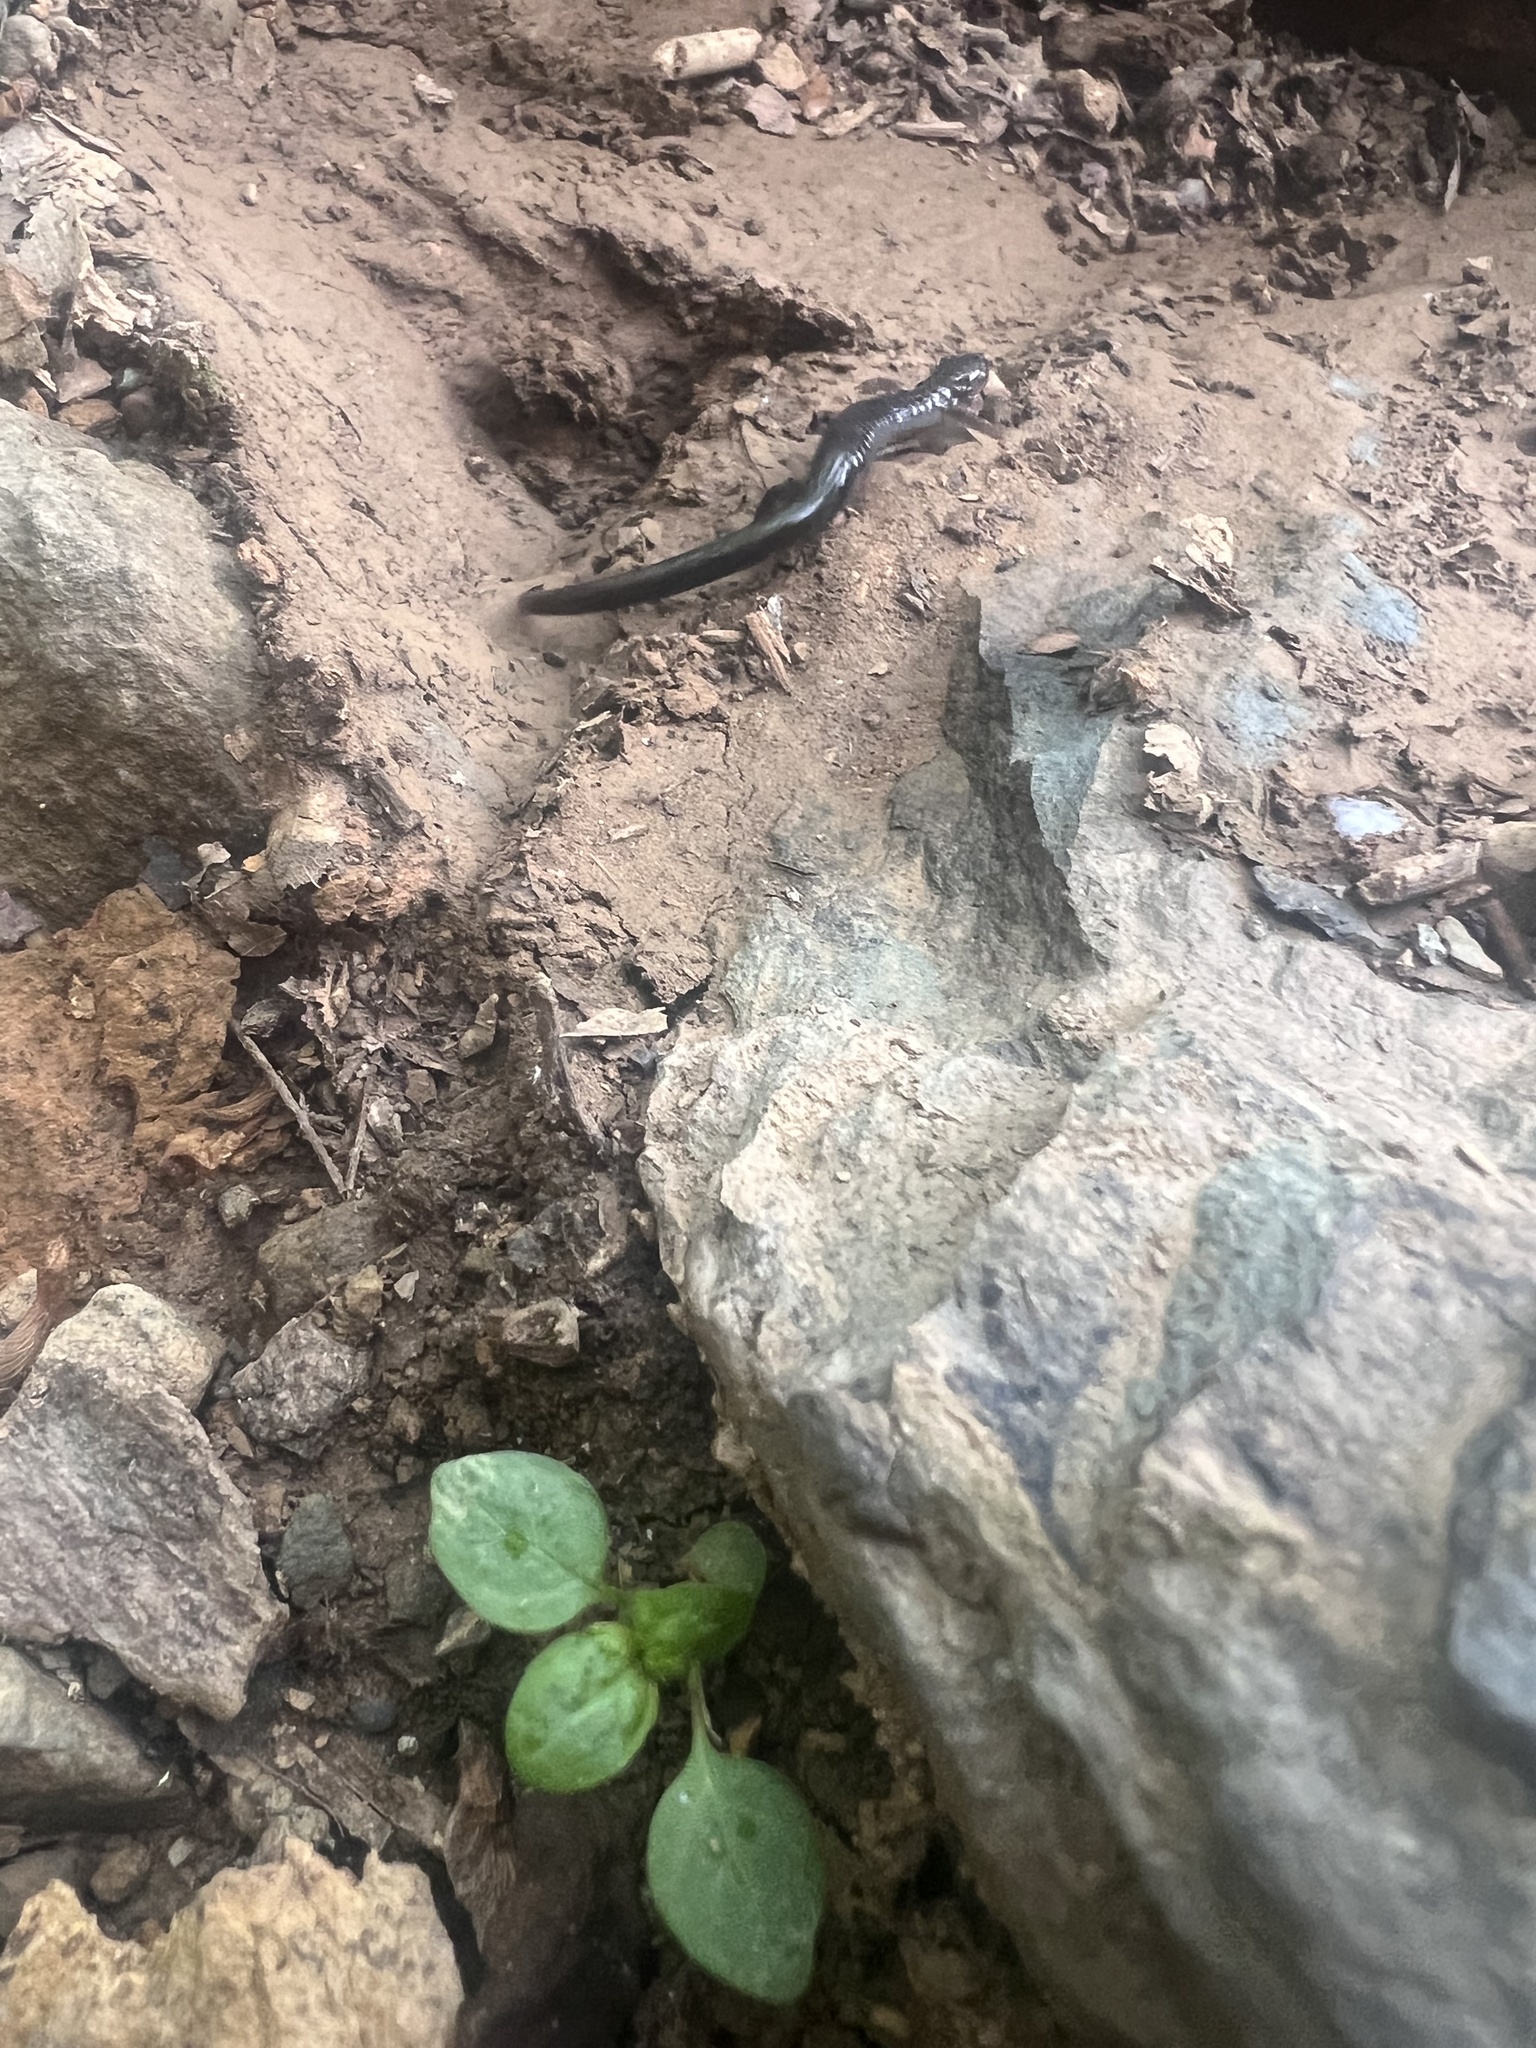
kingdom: Animalia
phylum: Chordata
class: Amphibia
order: Caudata
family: Plethodontidae
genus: Plethodon
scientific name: Plethodon cinereus
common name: Redback salamander
